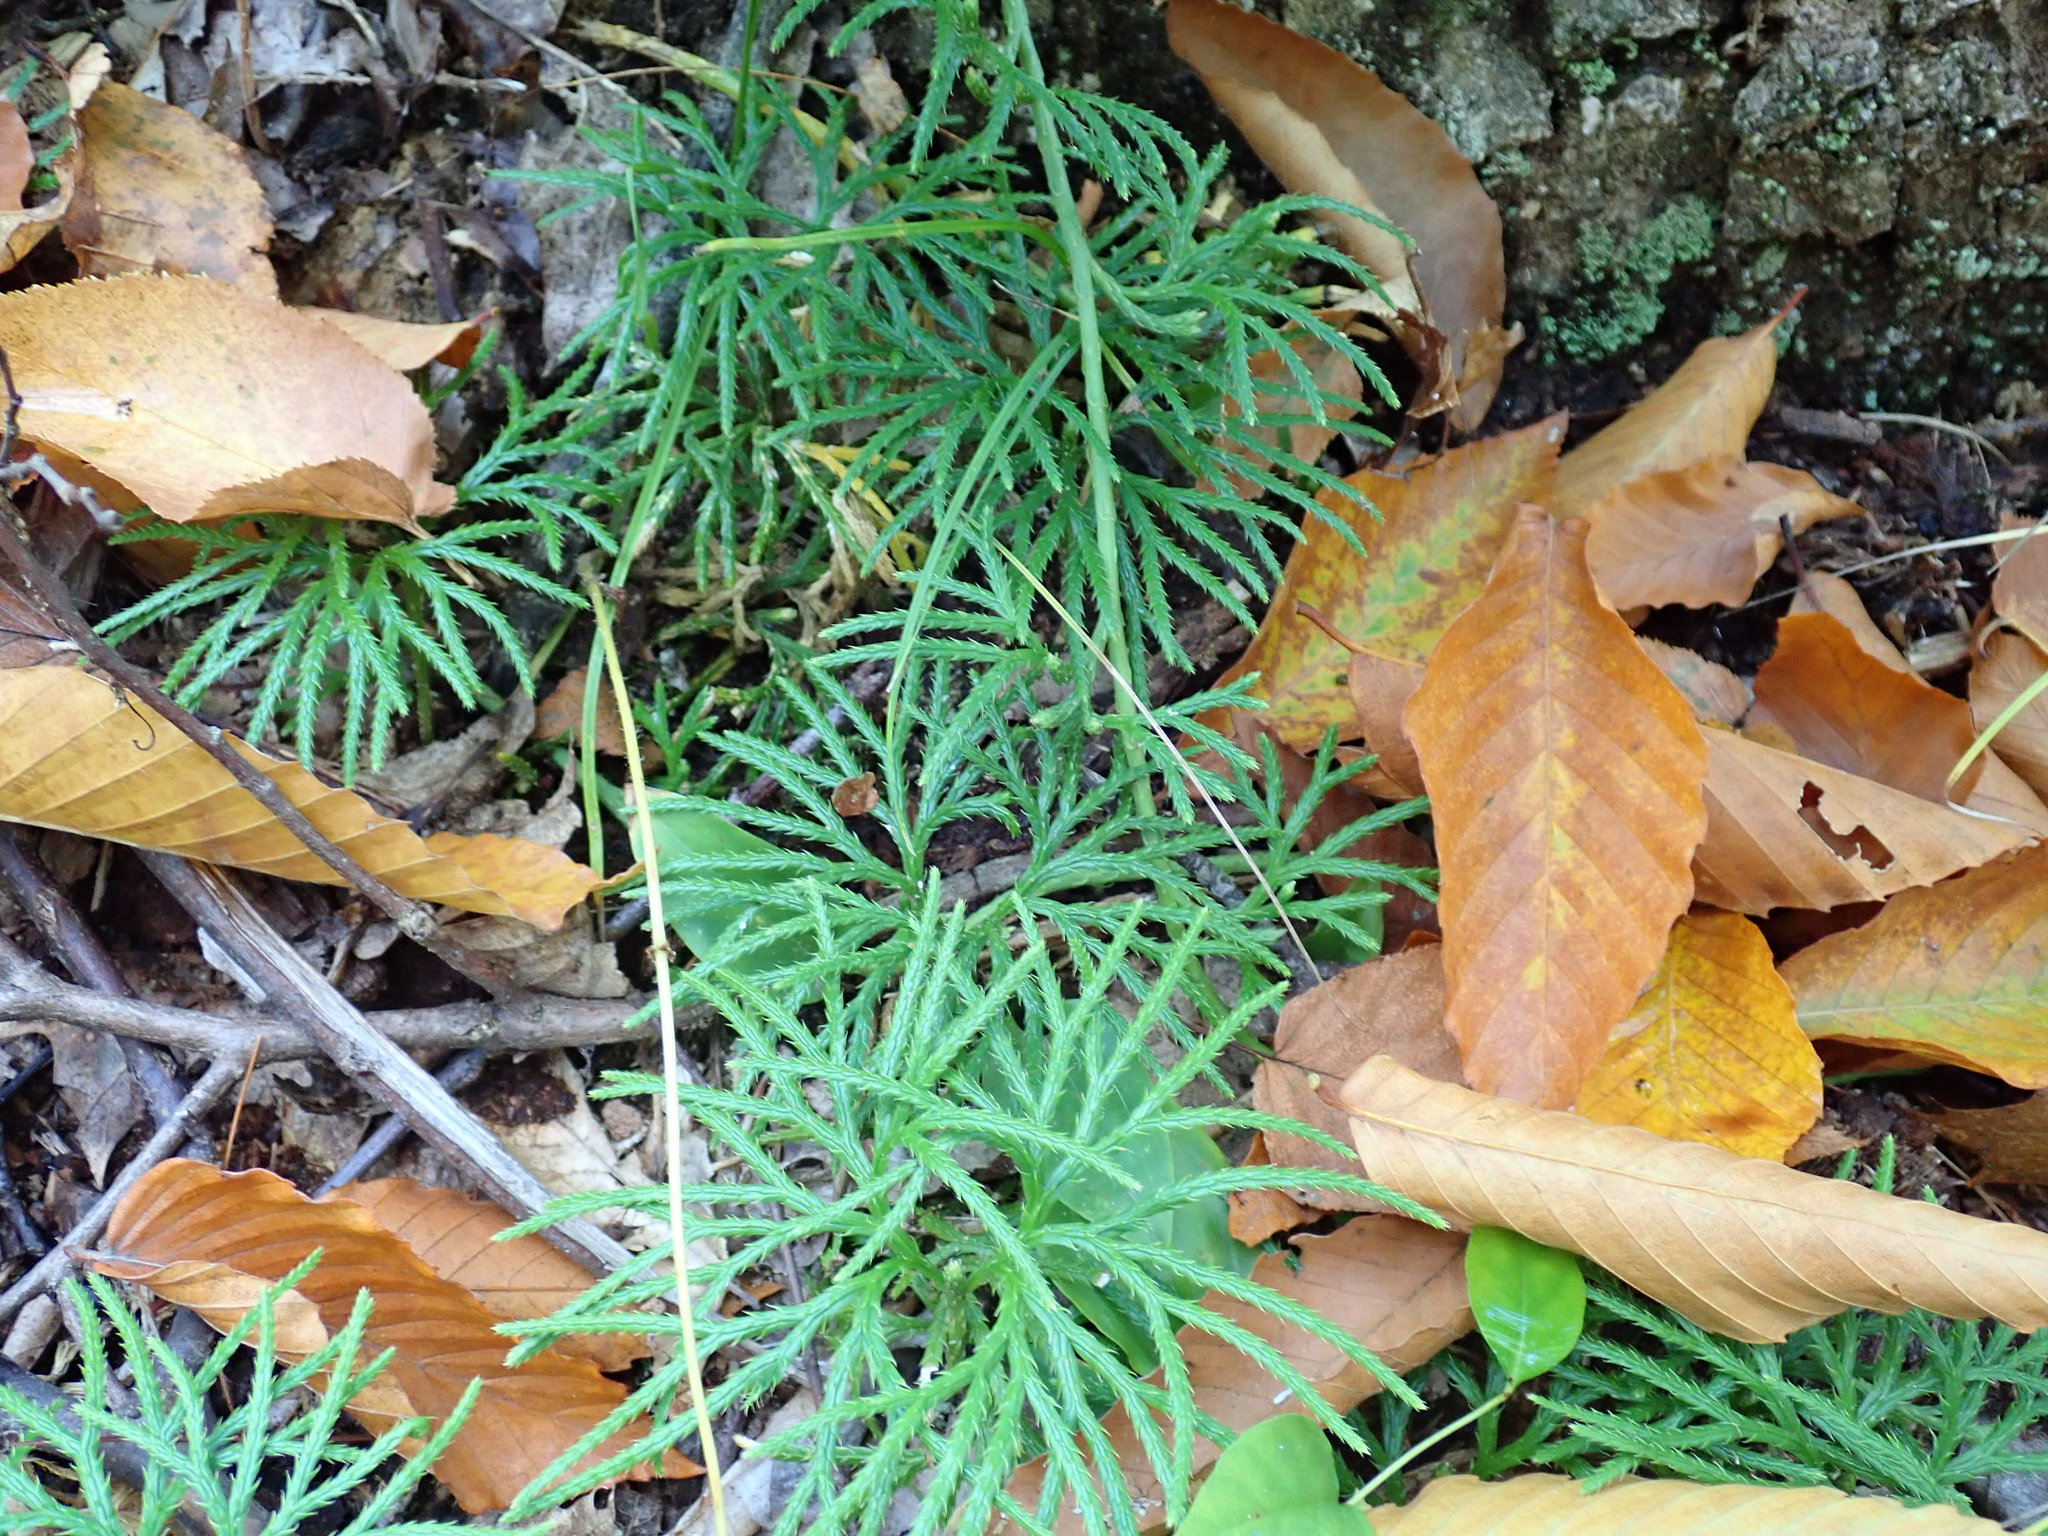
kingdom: Plantae
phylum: Tracheophyta
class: Lycopodiopsida
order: Lycopodiales
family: Lycopodiaceae
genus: Diphasiastrum
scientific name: Diphasiastrum digitatum
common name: Southern running-pine
